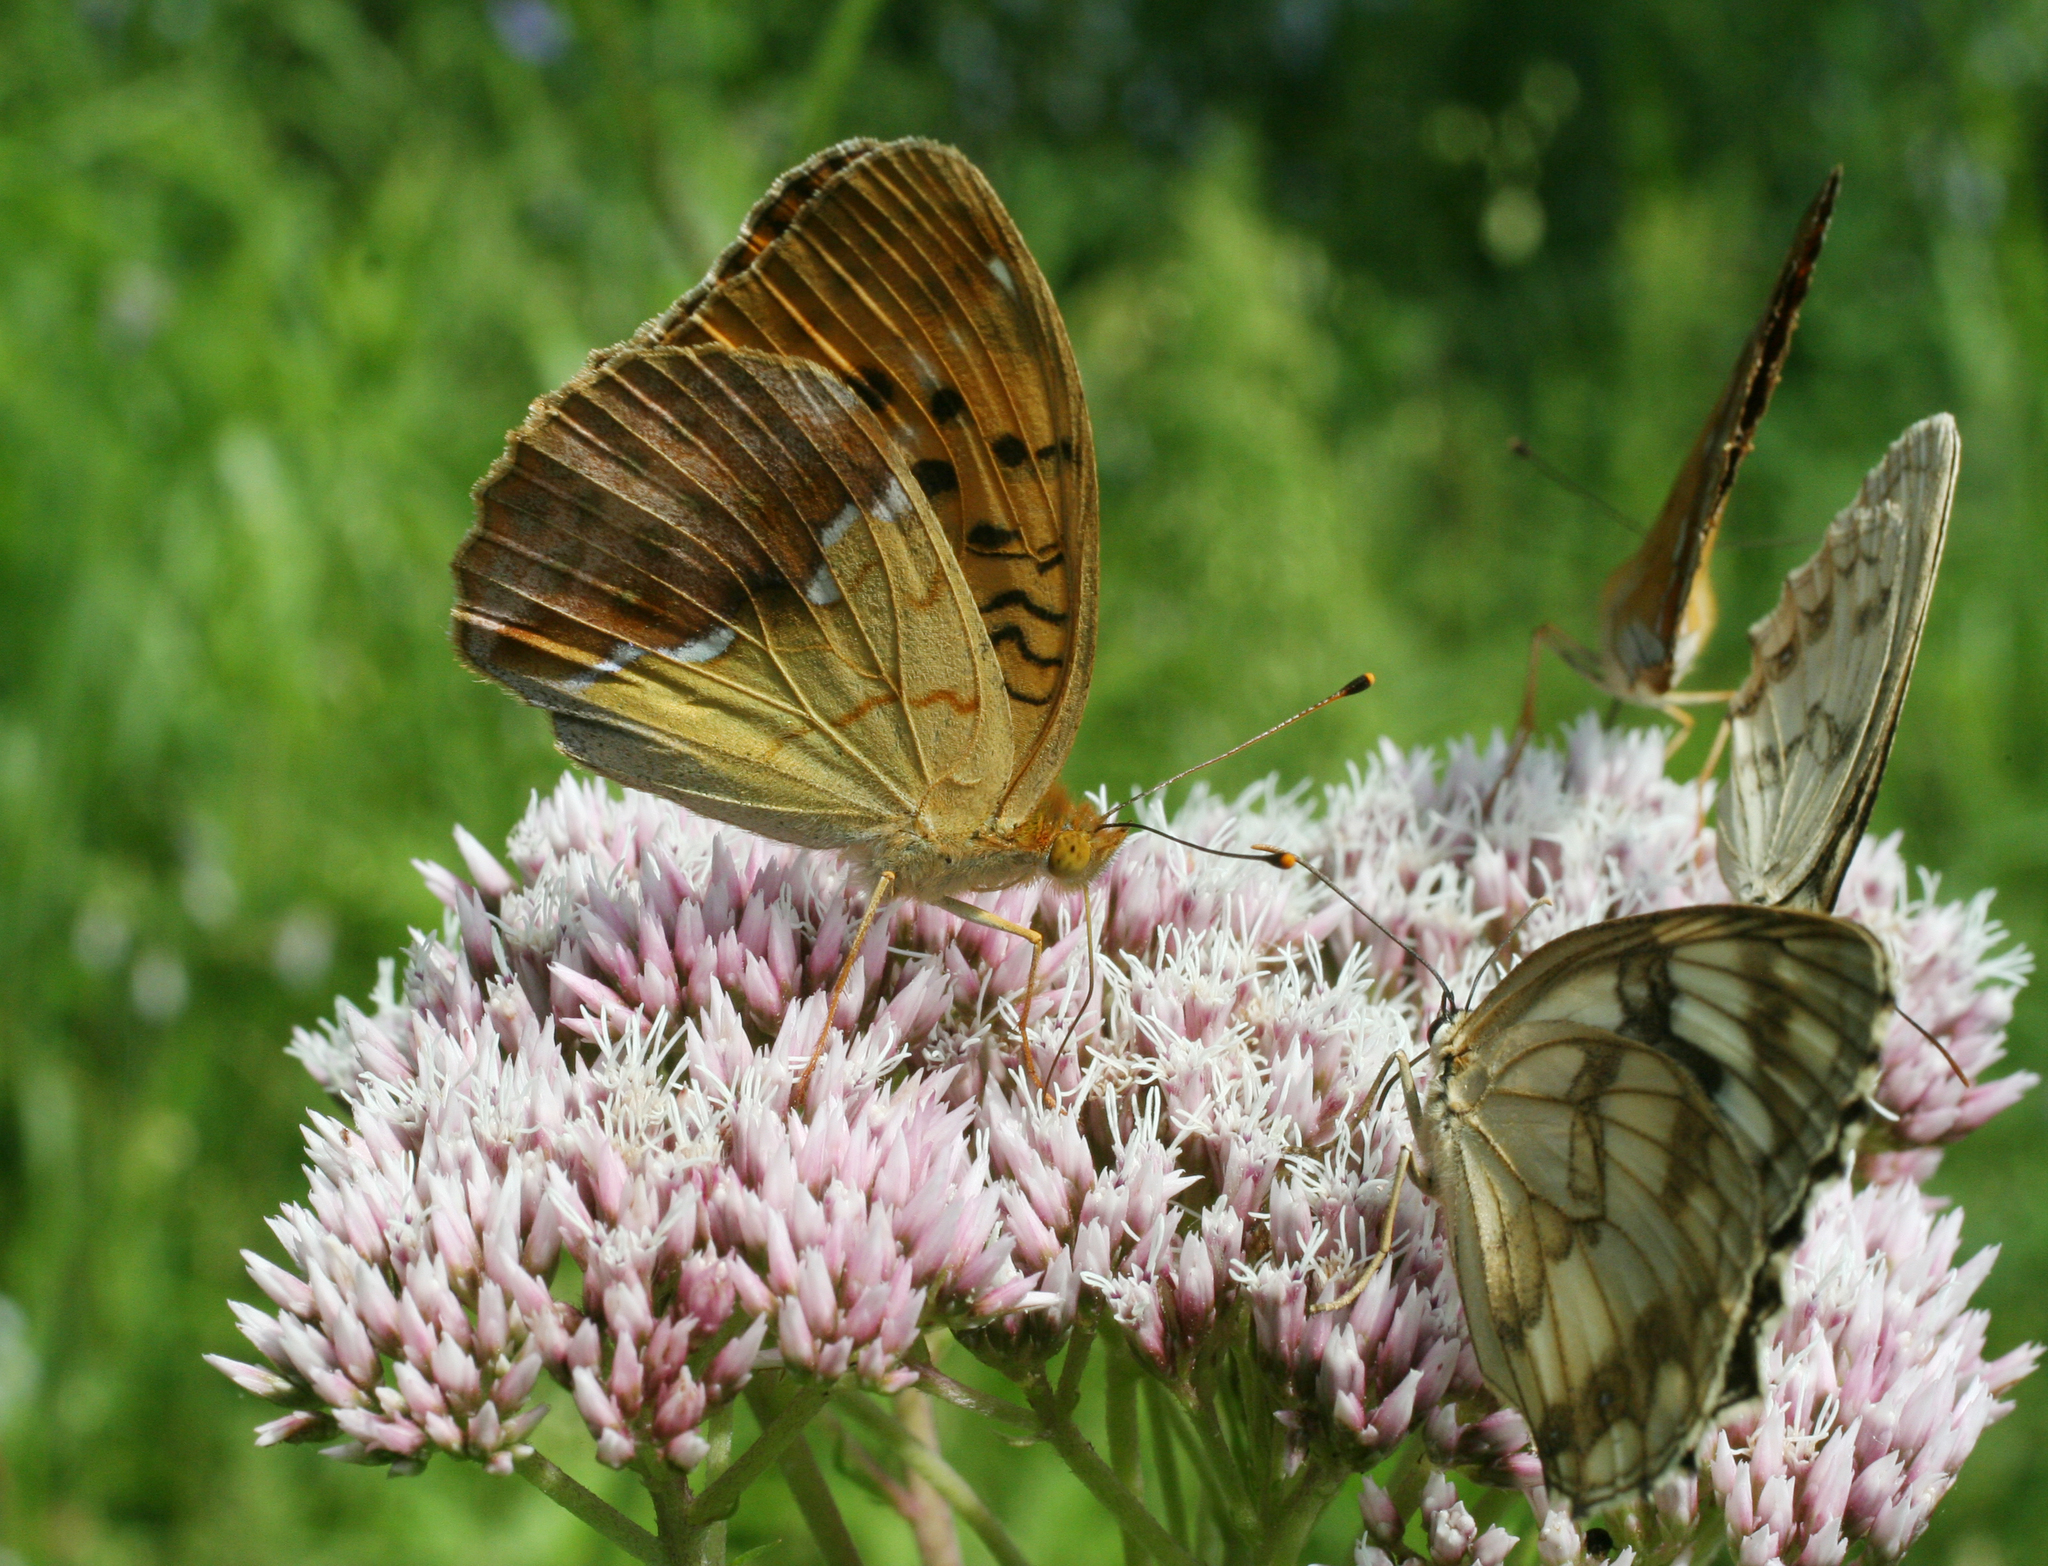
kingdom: Animalia
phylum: Arthropoda
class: Insecta
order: Lepidoptera
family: Nymphalidae
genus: Argyronome
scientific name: Argyronome laodice
